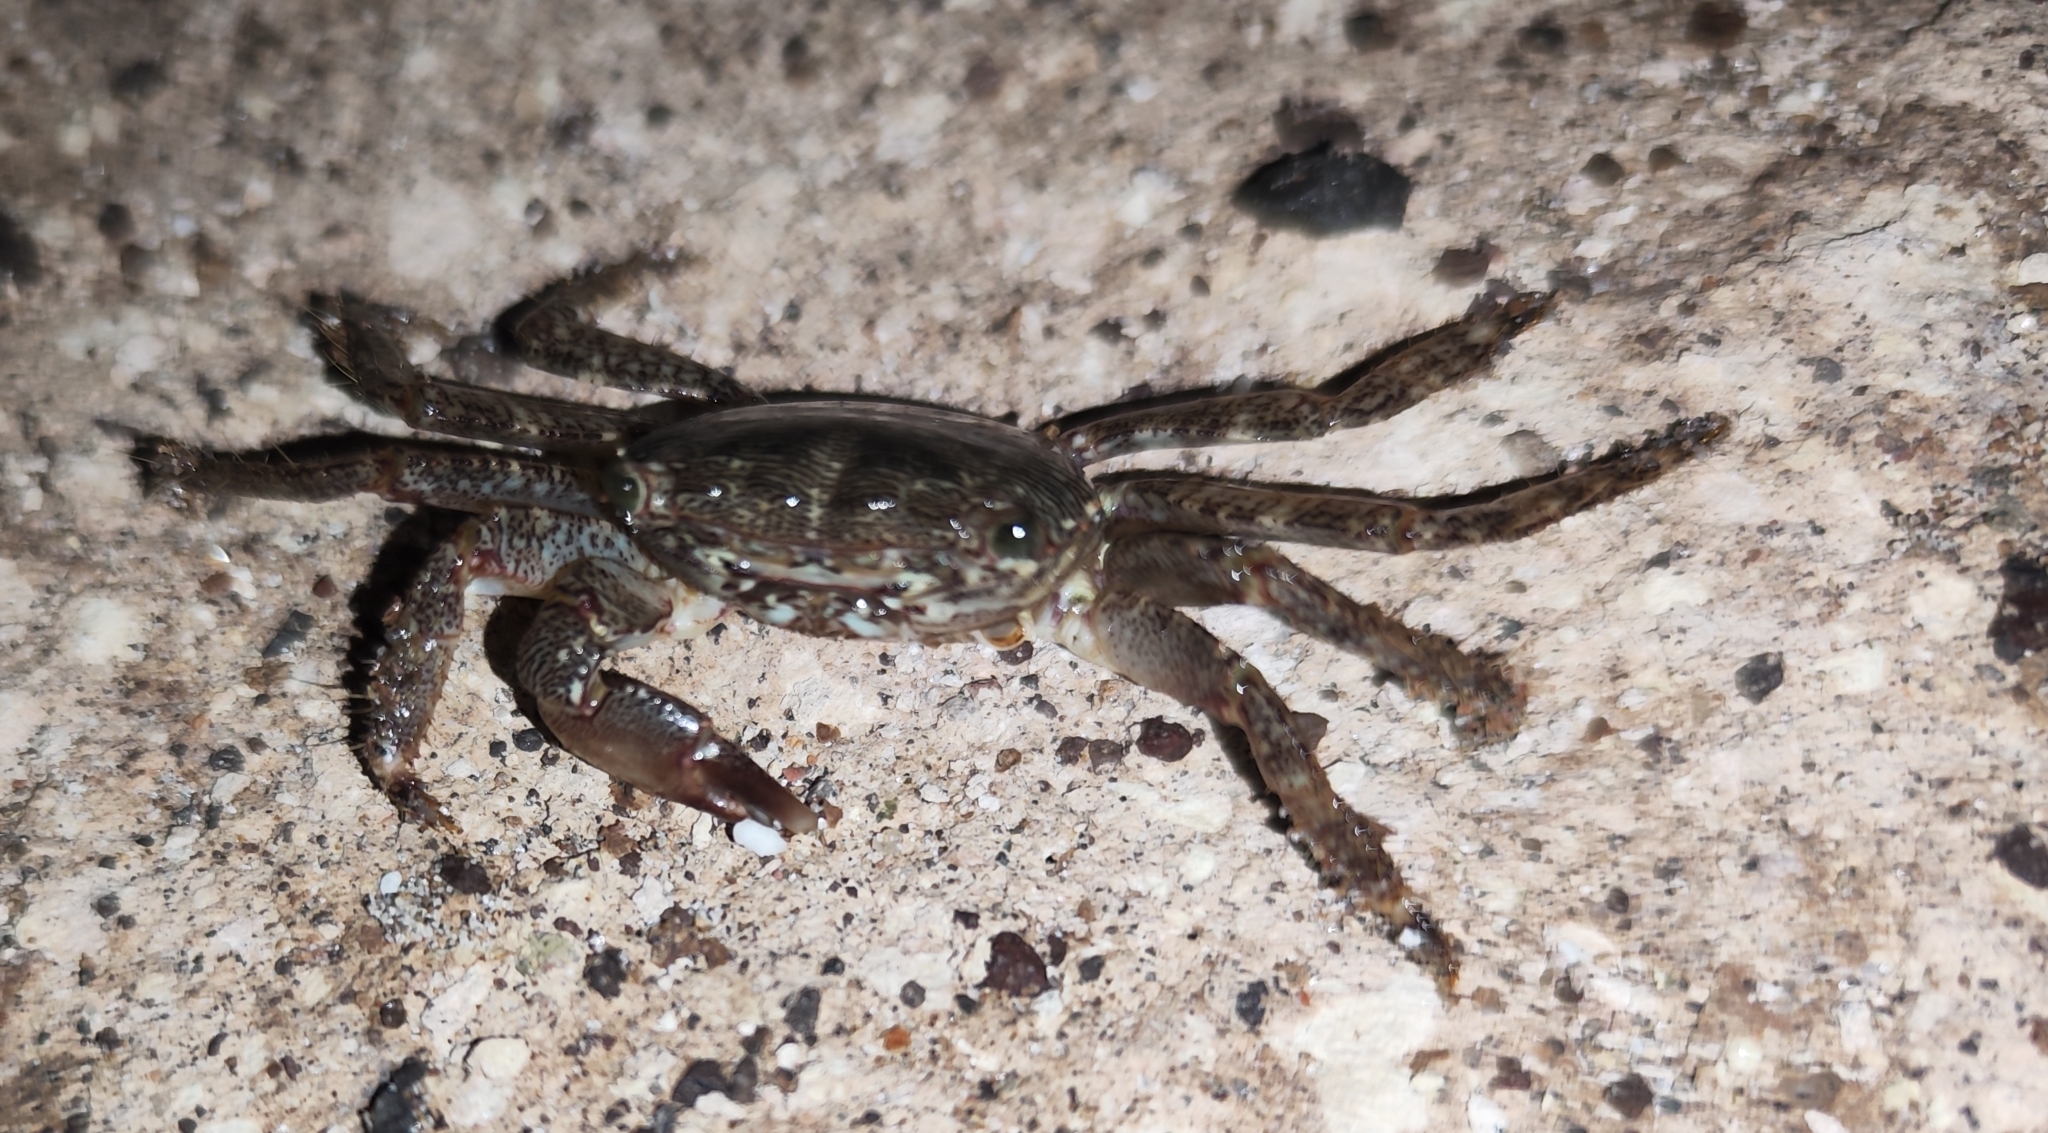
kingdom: Animalia
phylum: Arthropoda
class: Malacostraca
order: Decapoda
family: Grapsidae
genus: Pachygrapsus
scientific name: Pachygrapsus marmoratus
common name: Marbled rock crab
